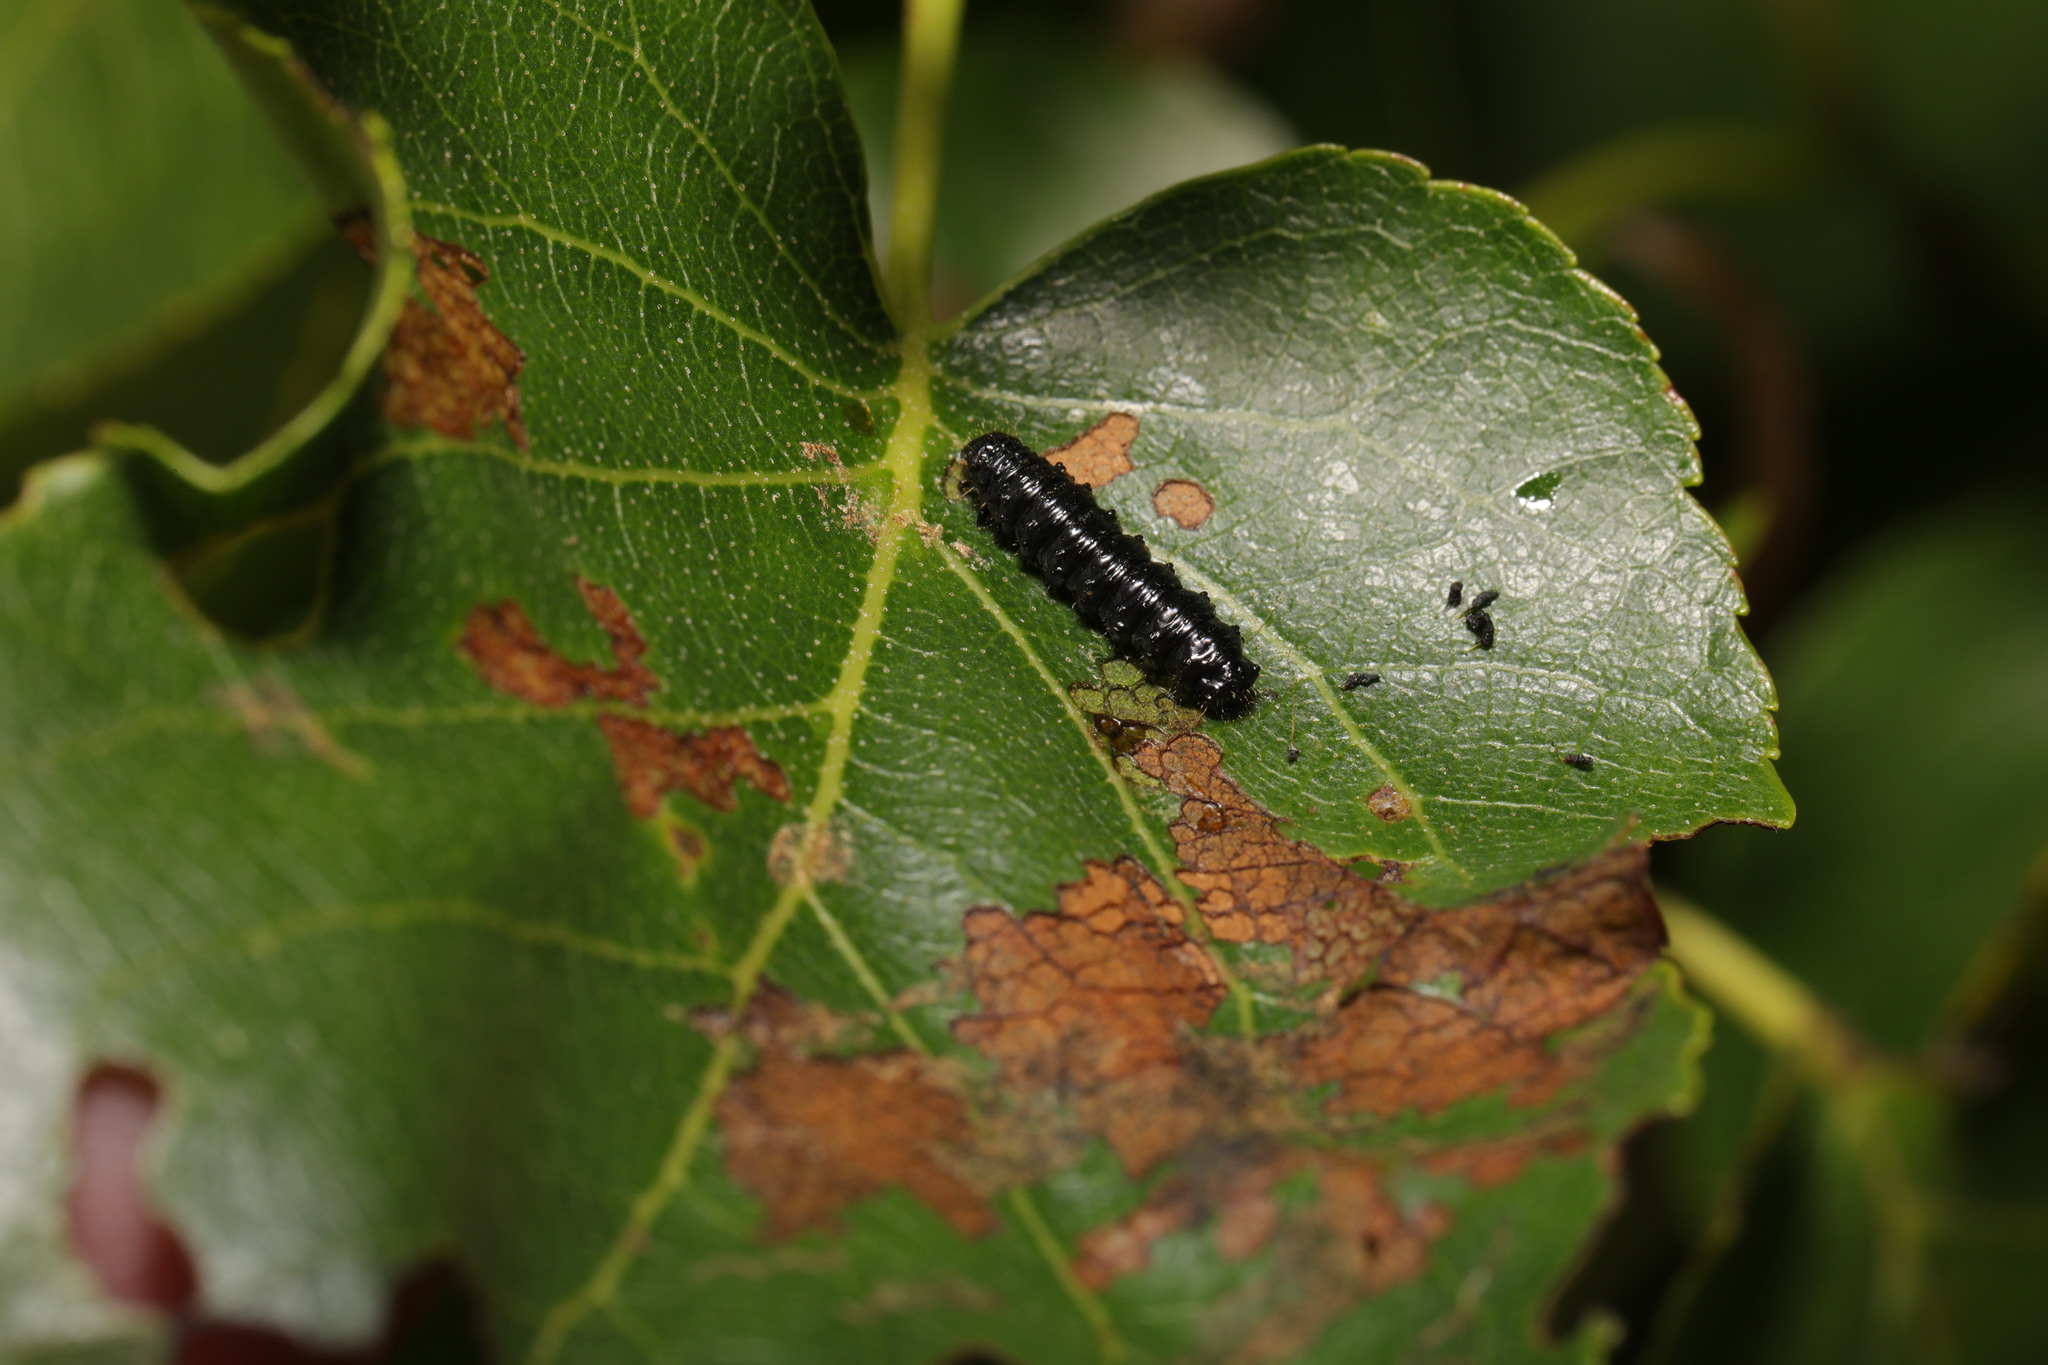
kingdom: Animalia
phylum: Arthropoda
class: Insecta
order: Coleoptera
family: Chrysomelidae
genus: Agelastica
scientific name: Agelastica alni
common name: Alder leaf beetle
